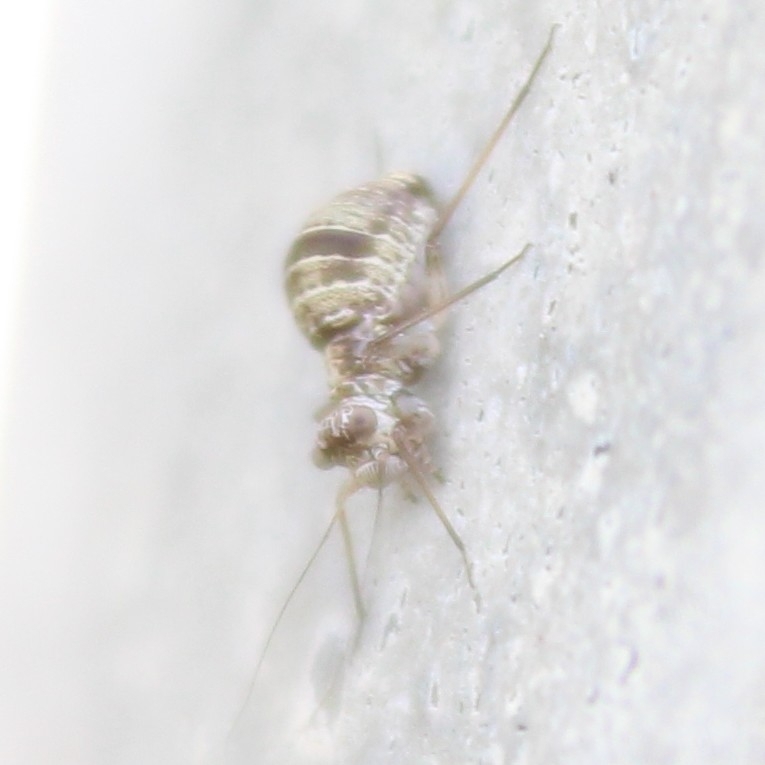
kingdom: Animalia
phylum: Arthropoda
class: Insecta
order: Psocodea
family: Mesopsocidae
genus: Mesopsocus
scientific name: Mesopsocus unipunctatus
